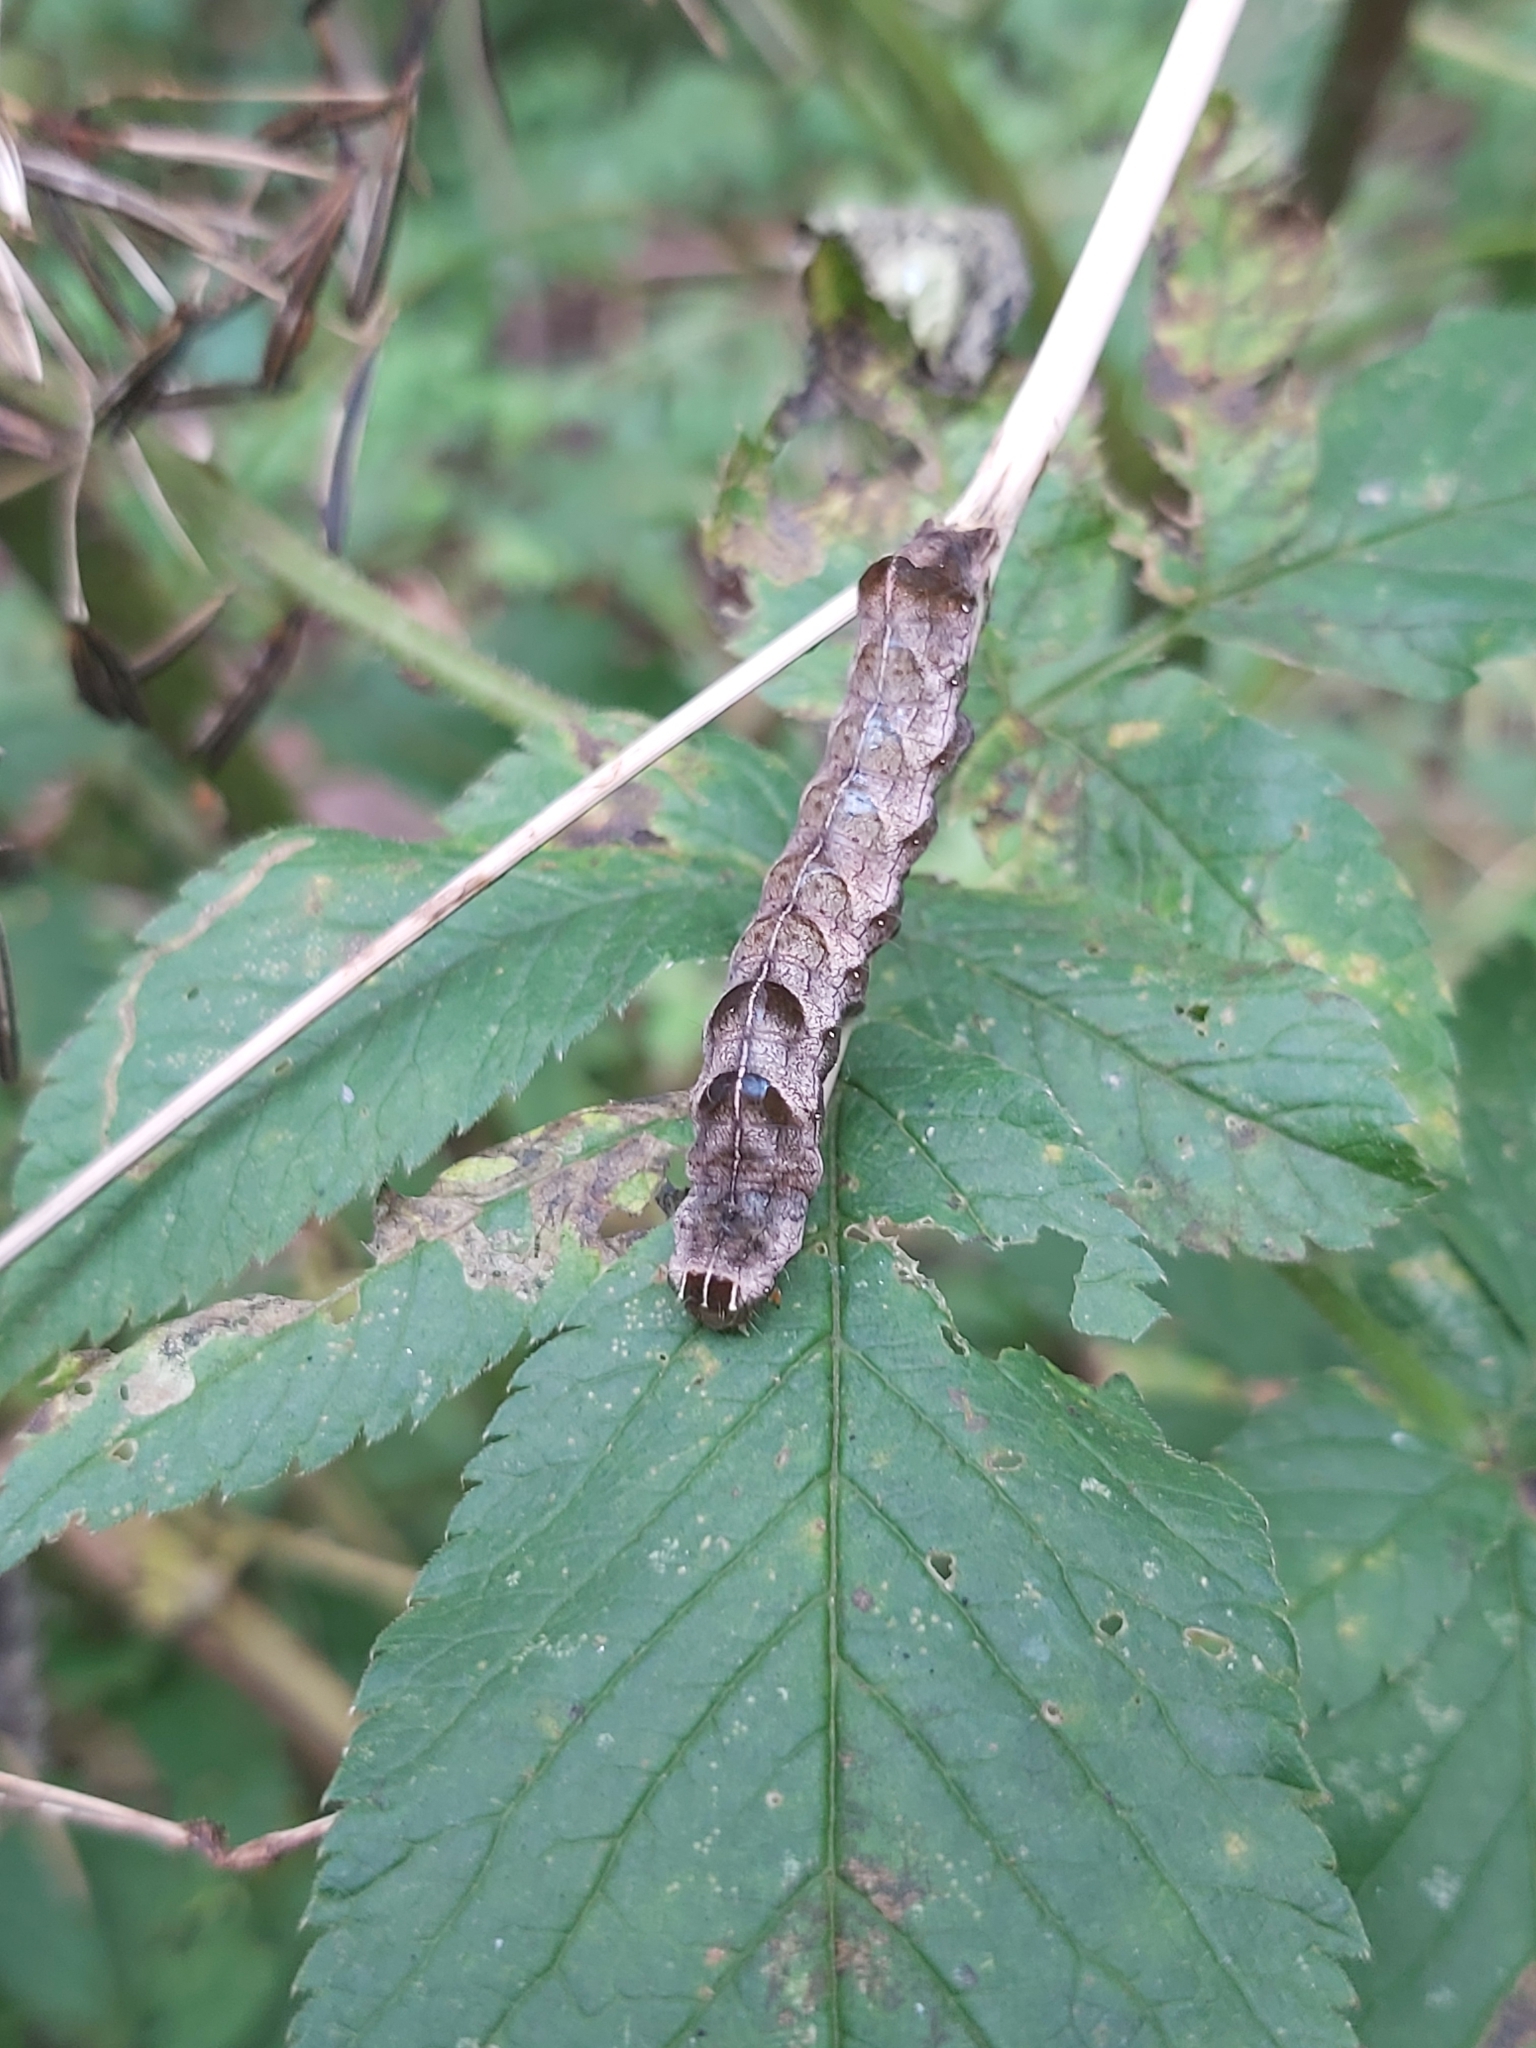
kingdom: Animalia
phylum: Arthropoda
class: Insecta
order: Lepidoptera
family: Noctuidae
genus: Melanchra
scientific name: Melanchra persicariae
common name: Dot moth
